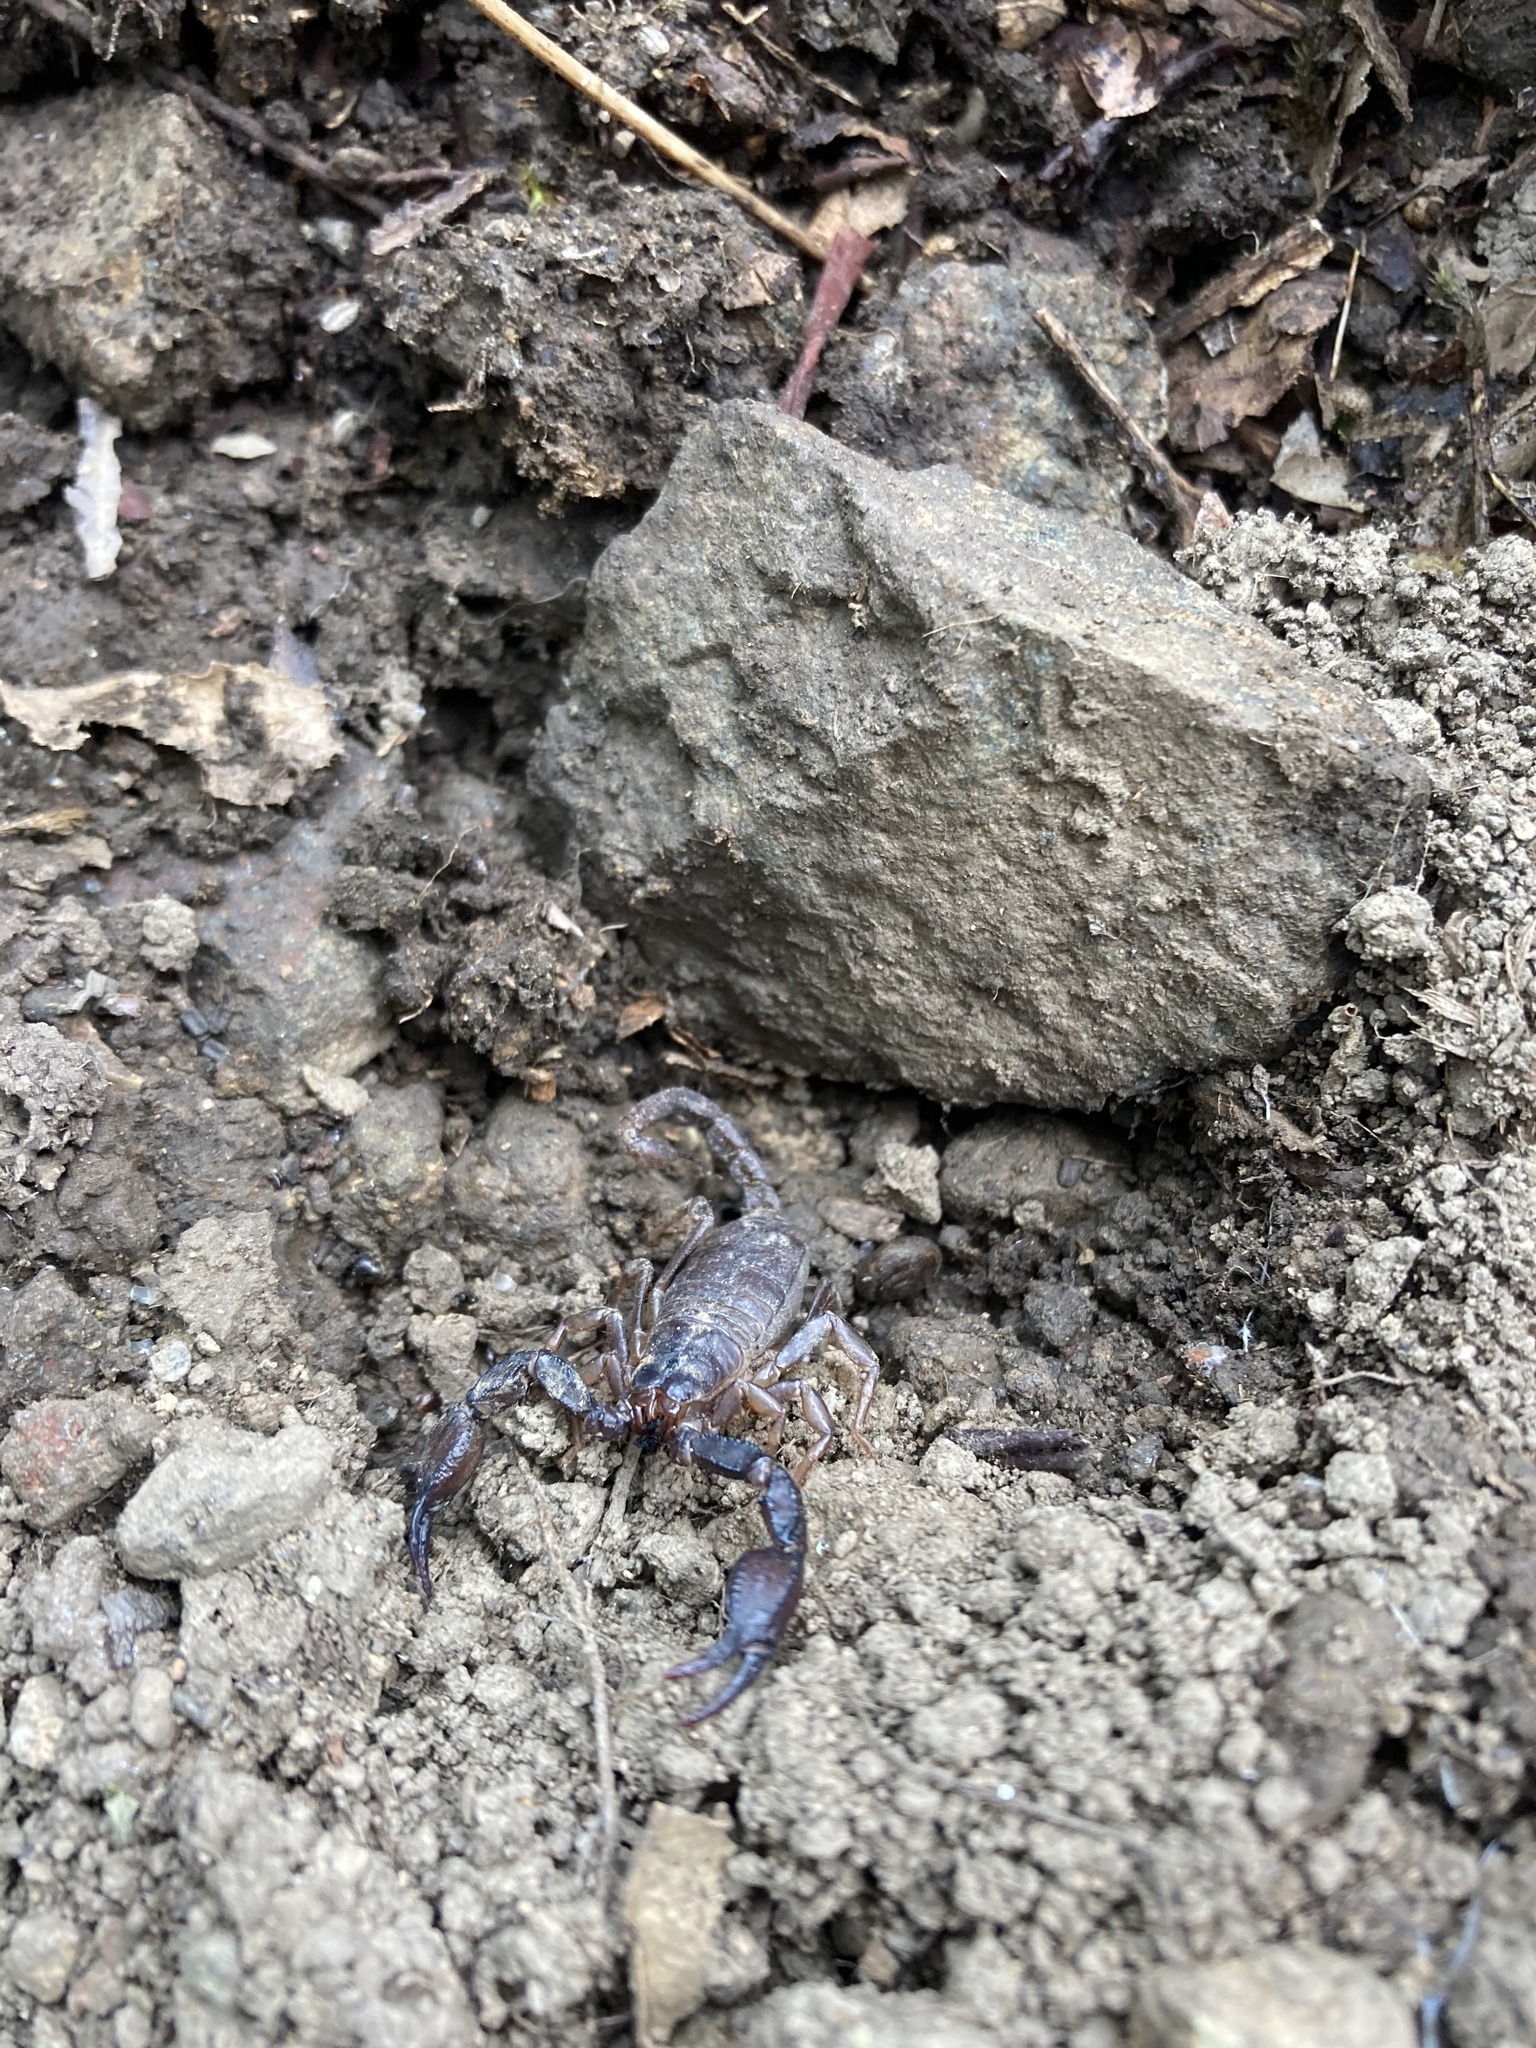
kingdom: Animalia
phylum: Arthropoda
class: Arachnida
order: Scorpiones
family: Chactidae
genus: Uroctonus
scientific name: Uroctonus mordax
